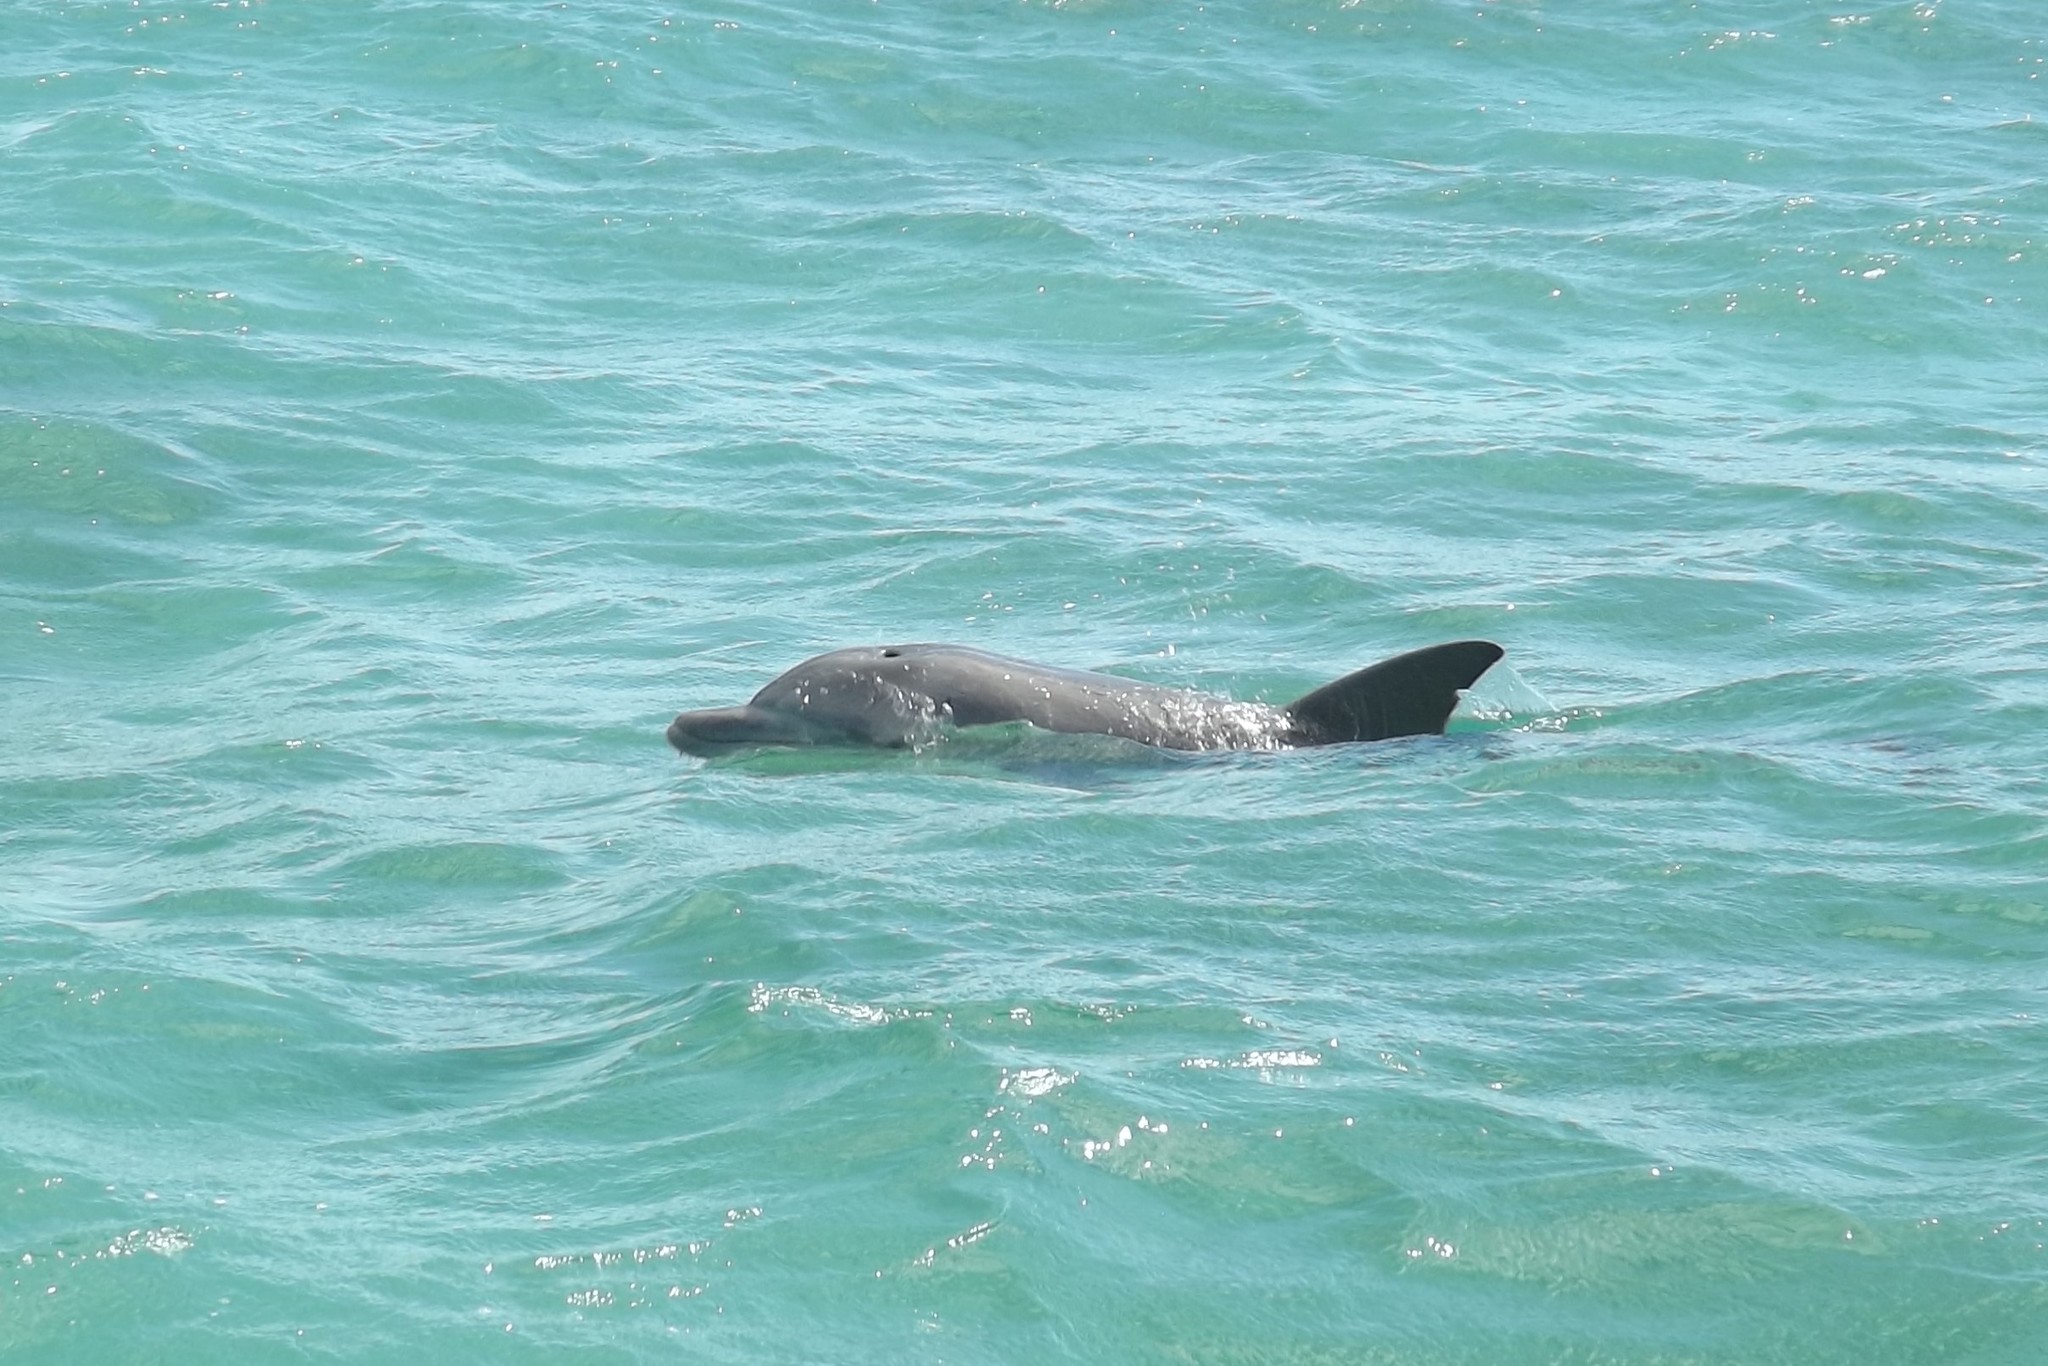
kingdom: Animalia
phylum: Chordata
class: Mammalia
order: Cetacea
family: Delphinidae
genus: Tursiops
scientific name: Tursiops aduncus
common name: Indo-pacific bottlenose dolphin
